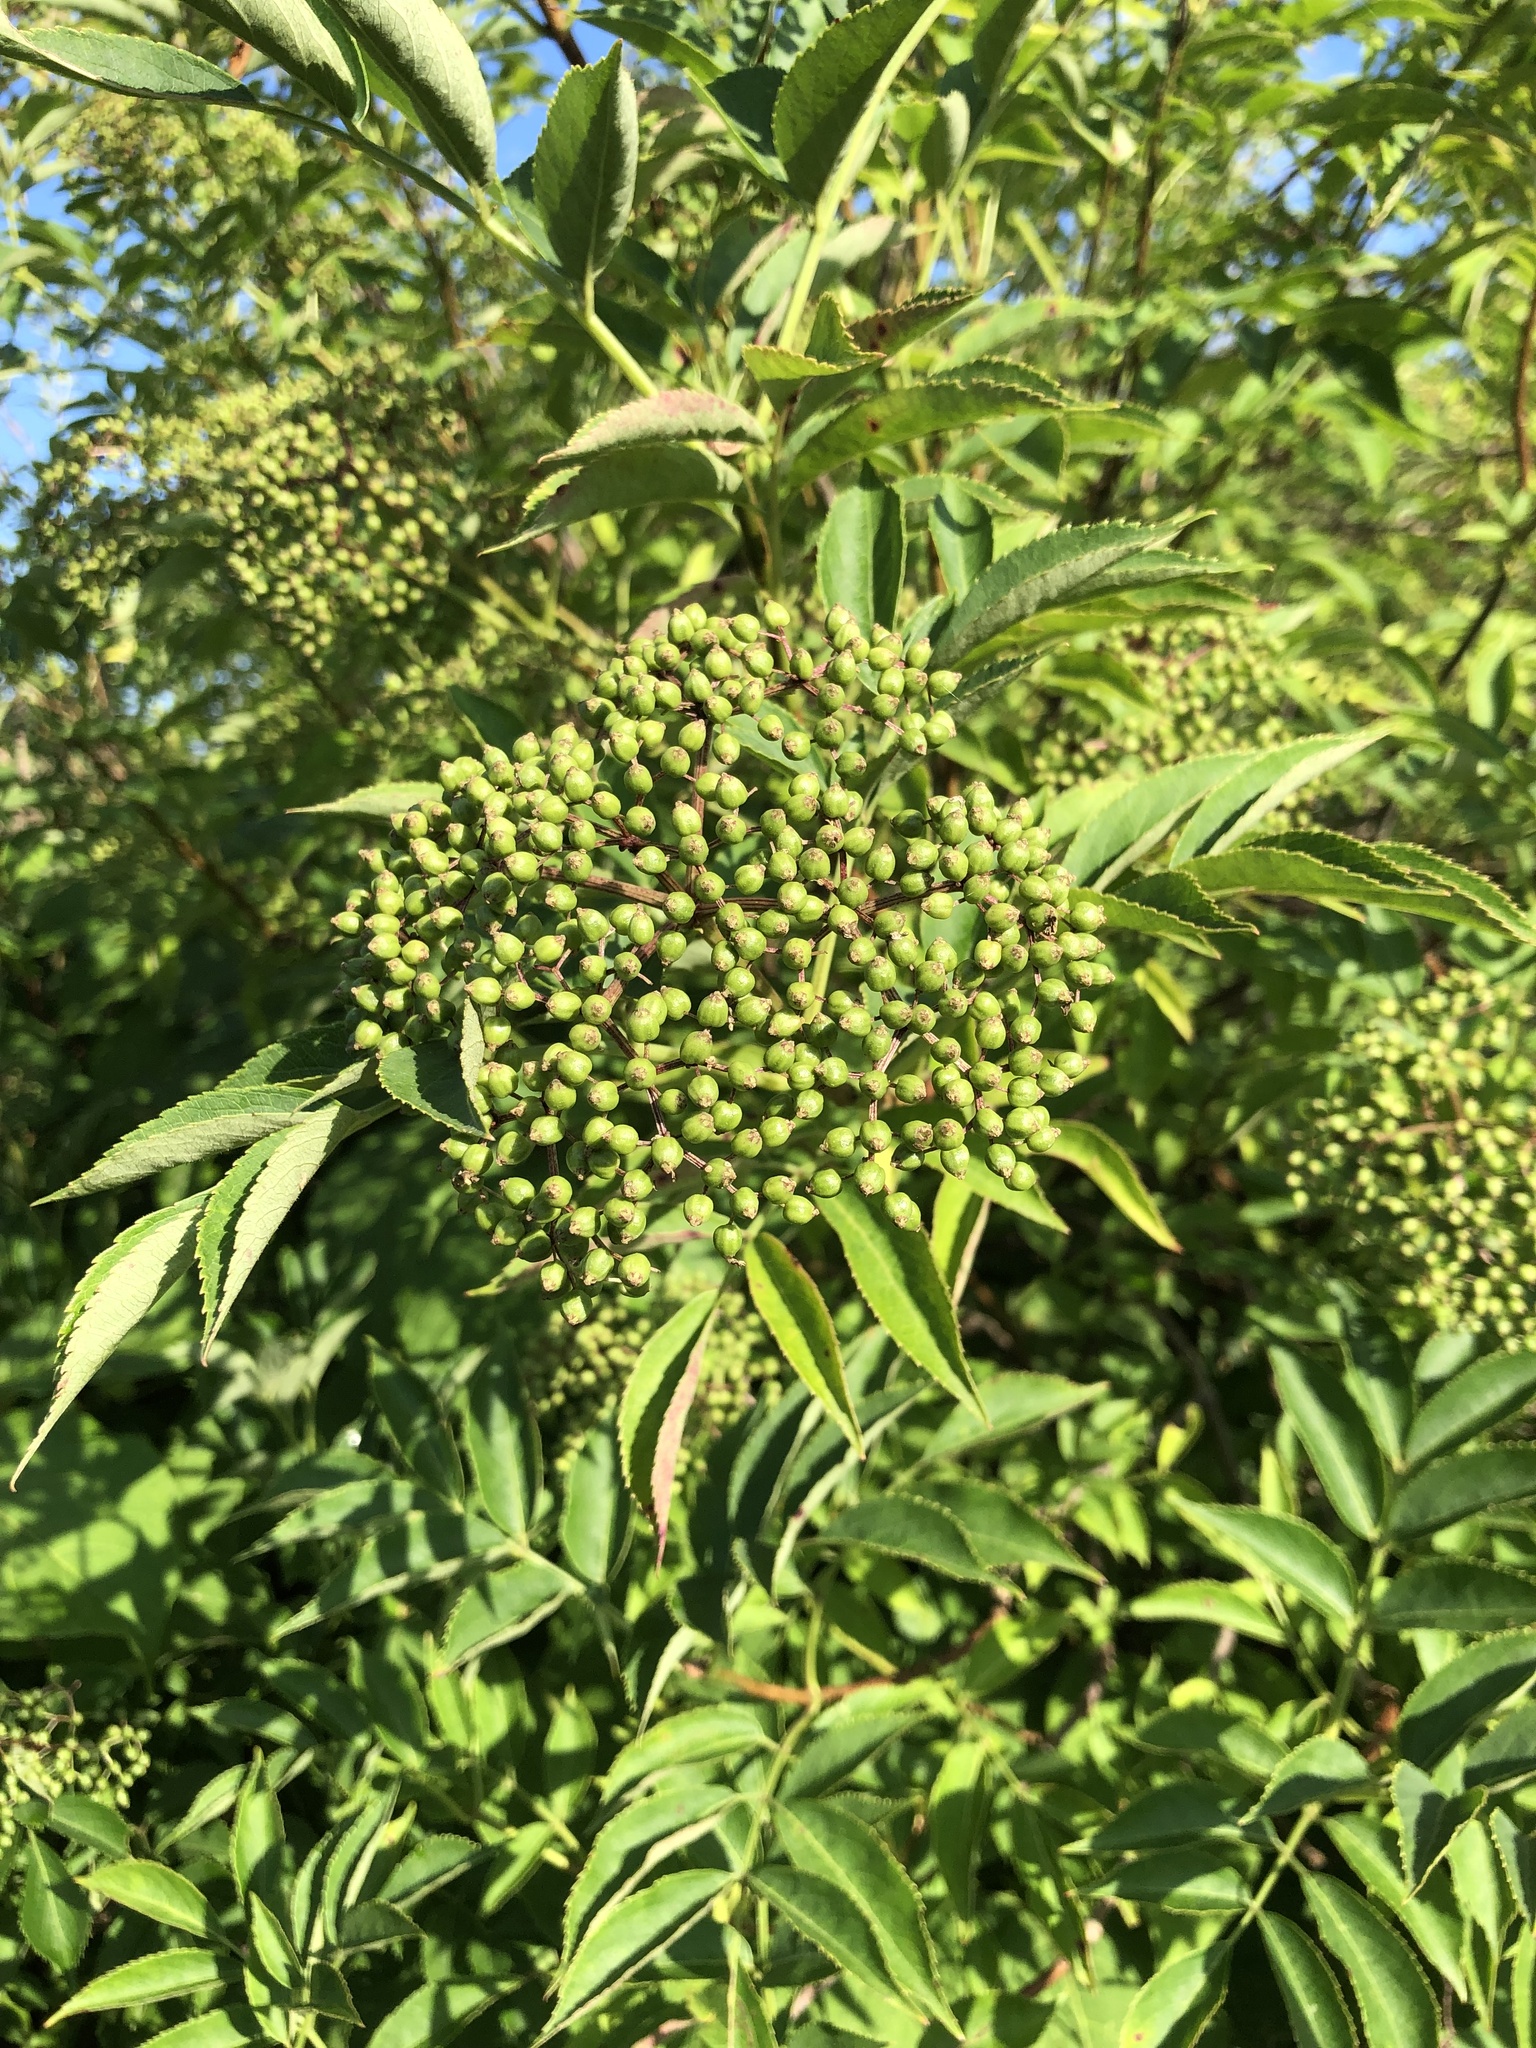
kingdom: Plantae
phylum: Tracheophyta
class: Magnoliopsida
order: Dipsacales
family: Viburnaceae
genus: Sambucus
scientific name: Sambucus canadensis
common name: American elder
